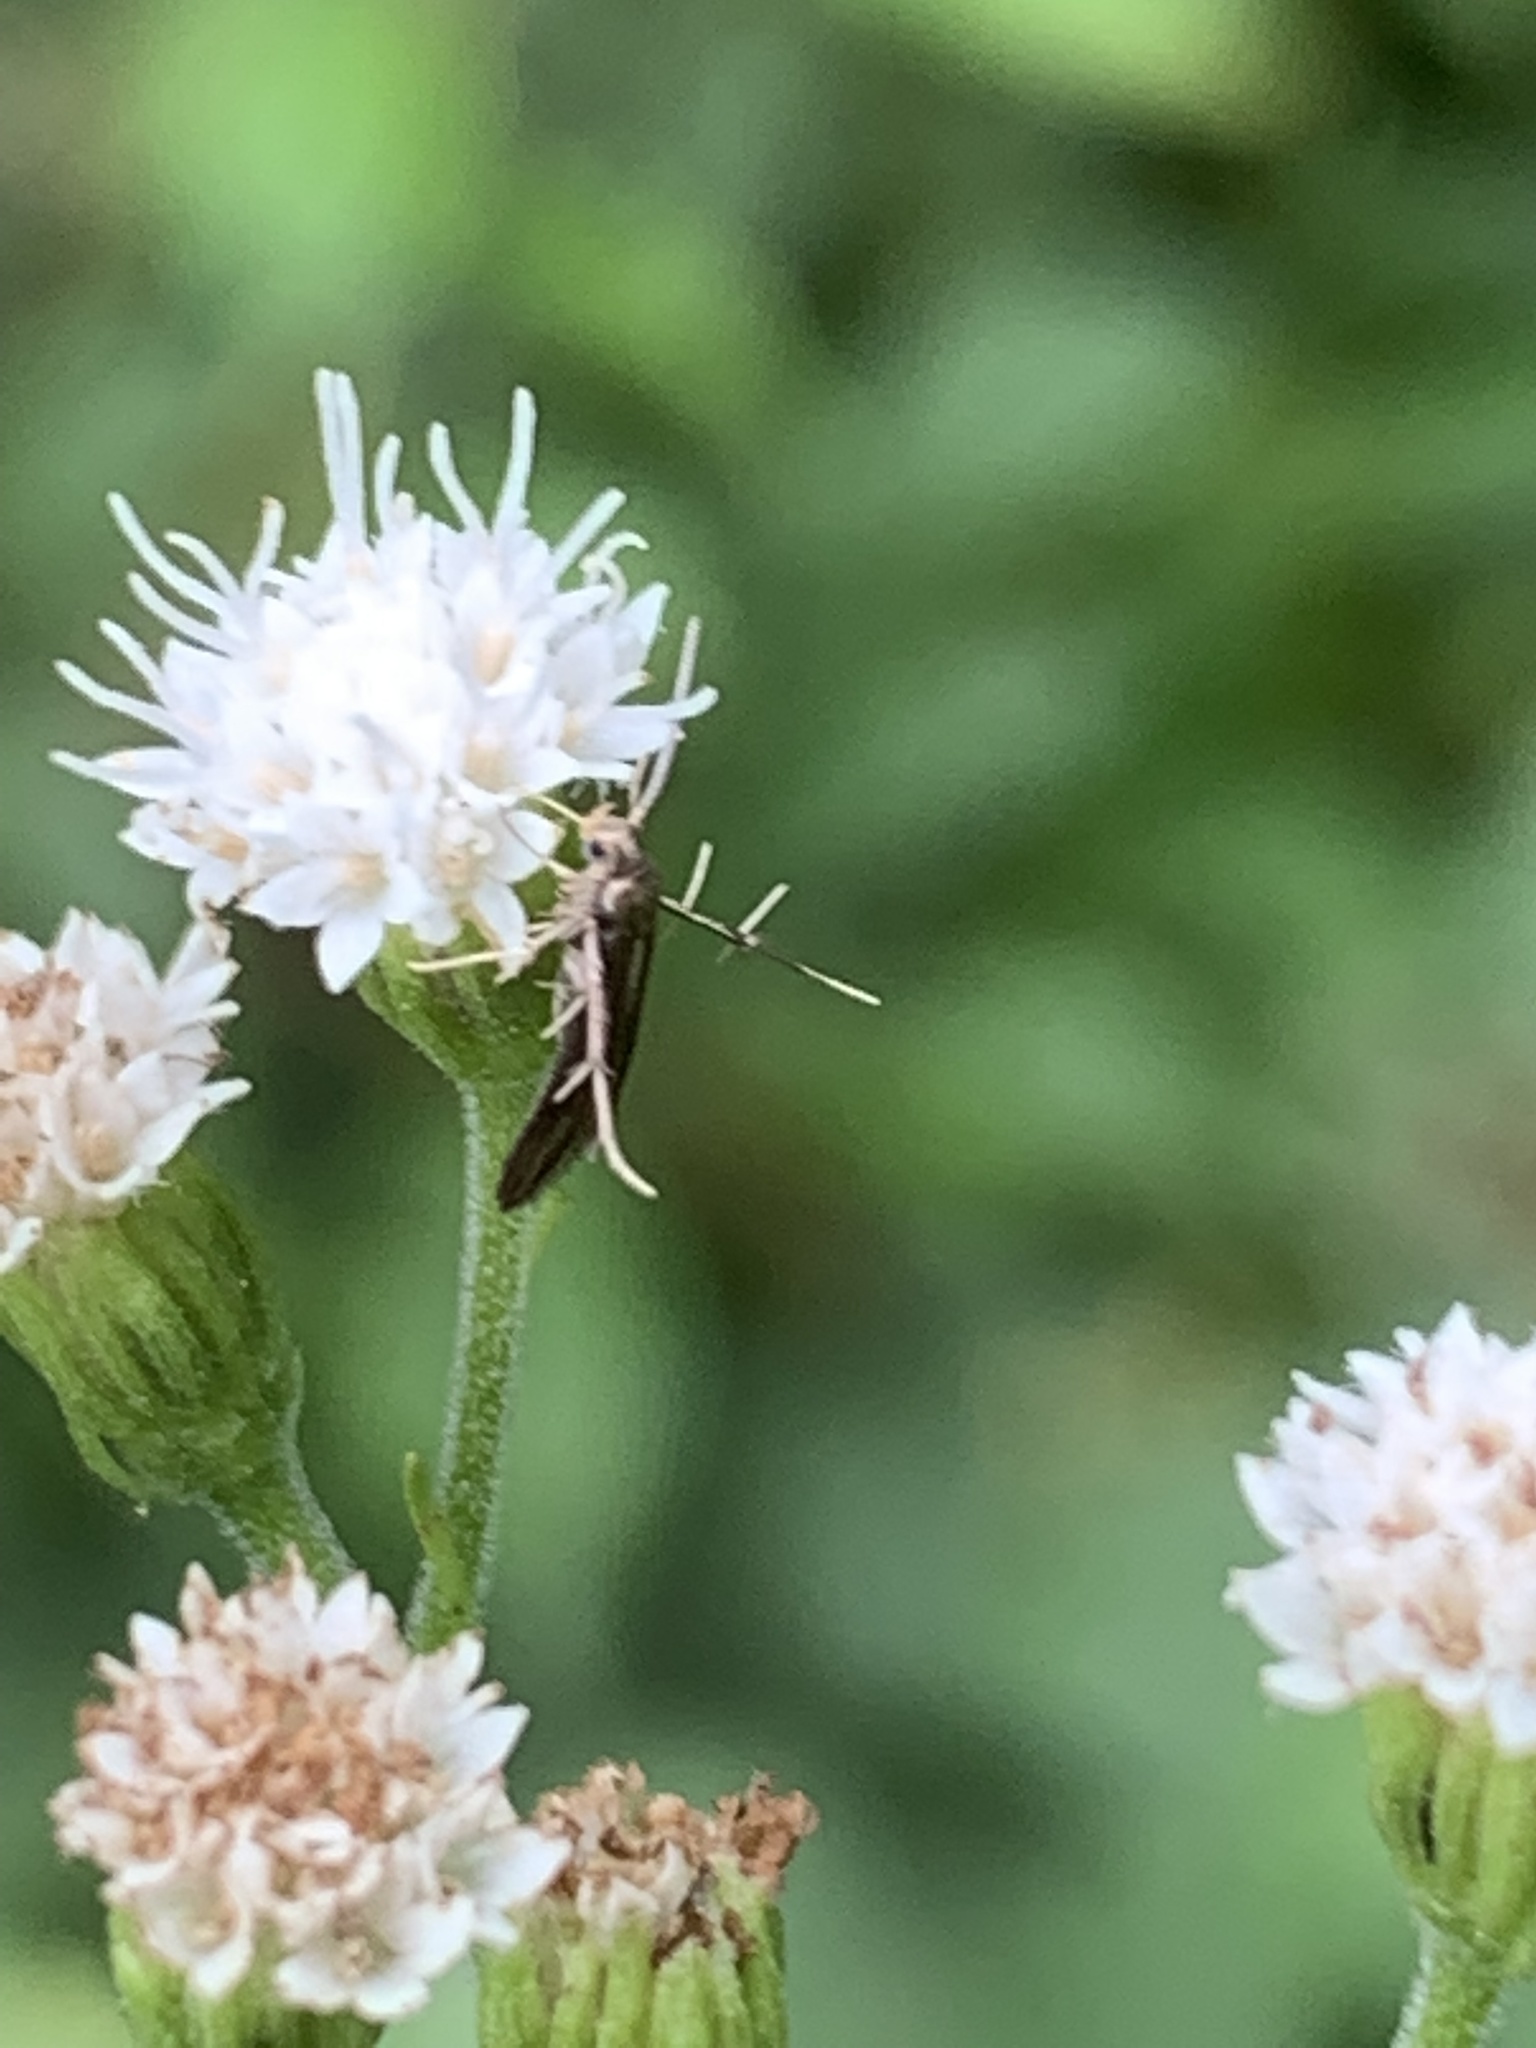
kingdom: Animalia
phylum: Arthropoda
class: Insecta
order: Lepidoptera
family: Schreckensteiniidae
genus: Schreckensteinia
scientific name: Schreckensteinia festaliella
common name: Blackberry skeletonizer
